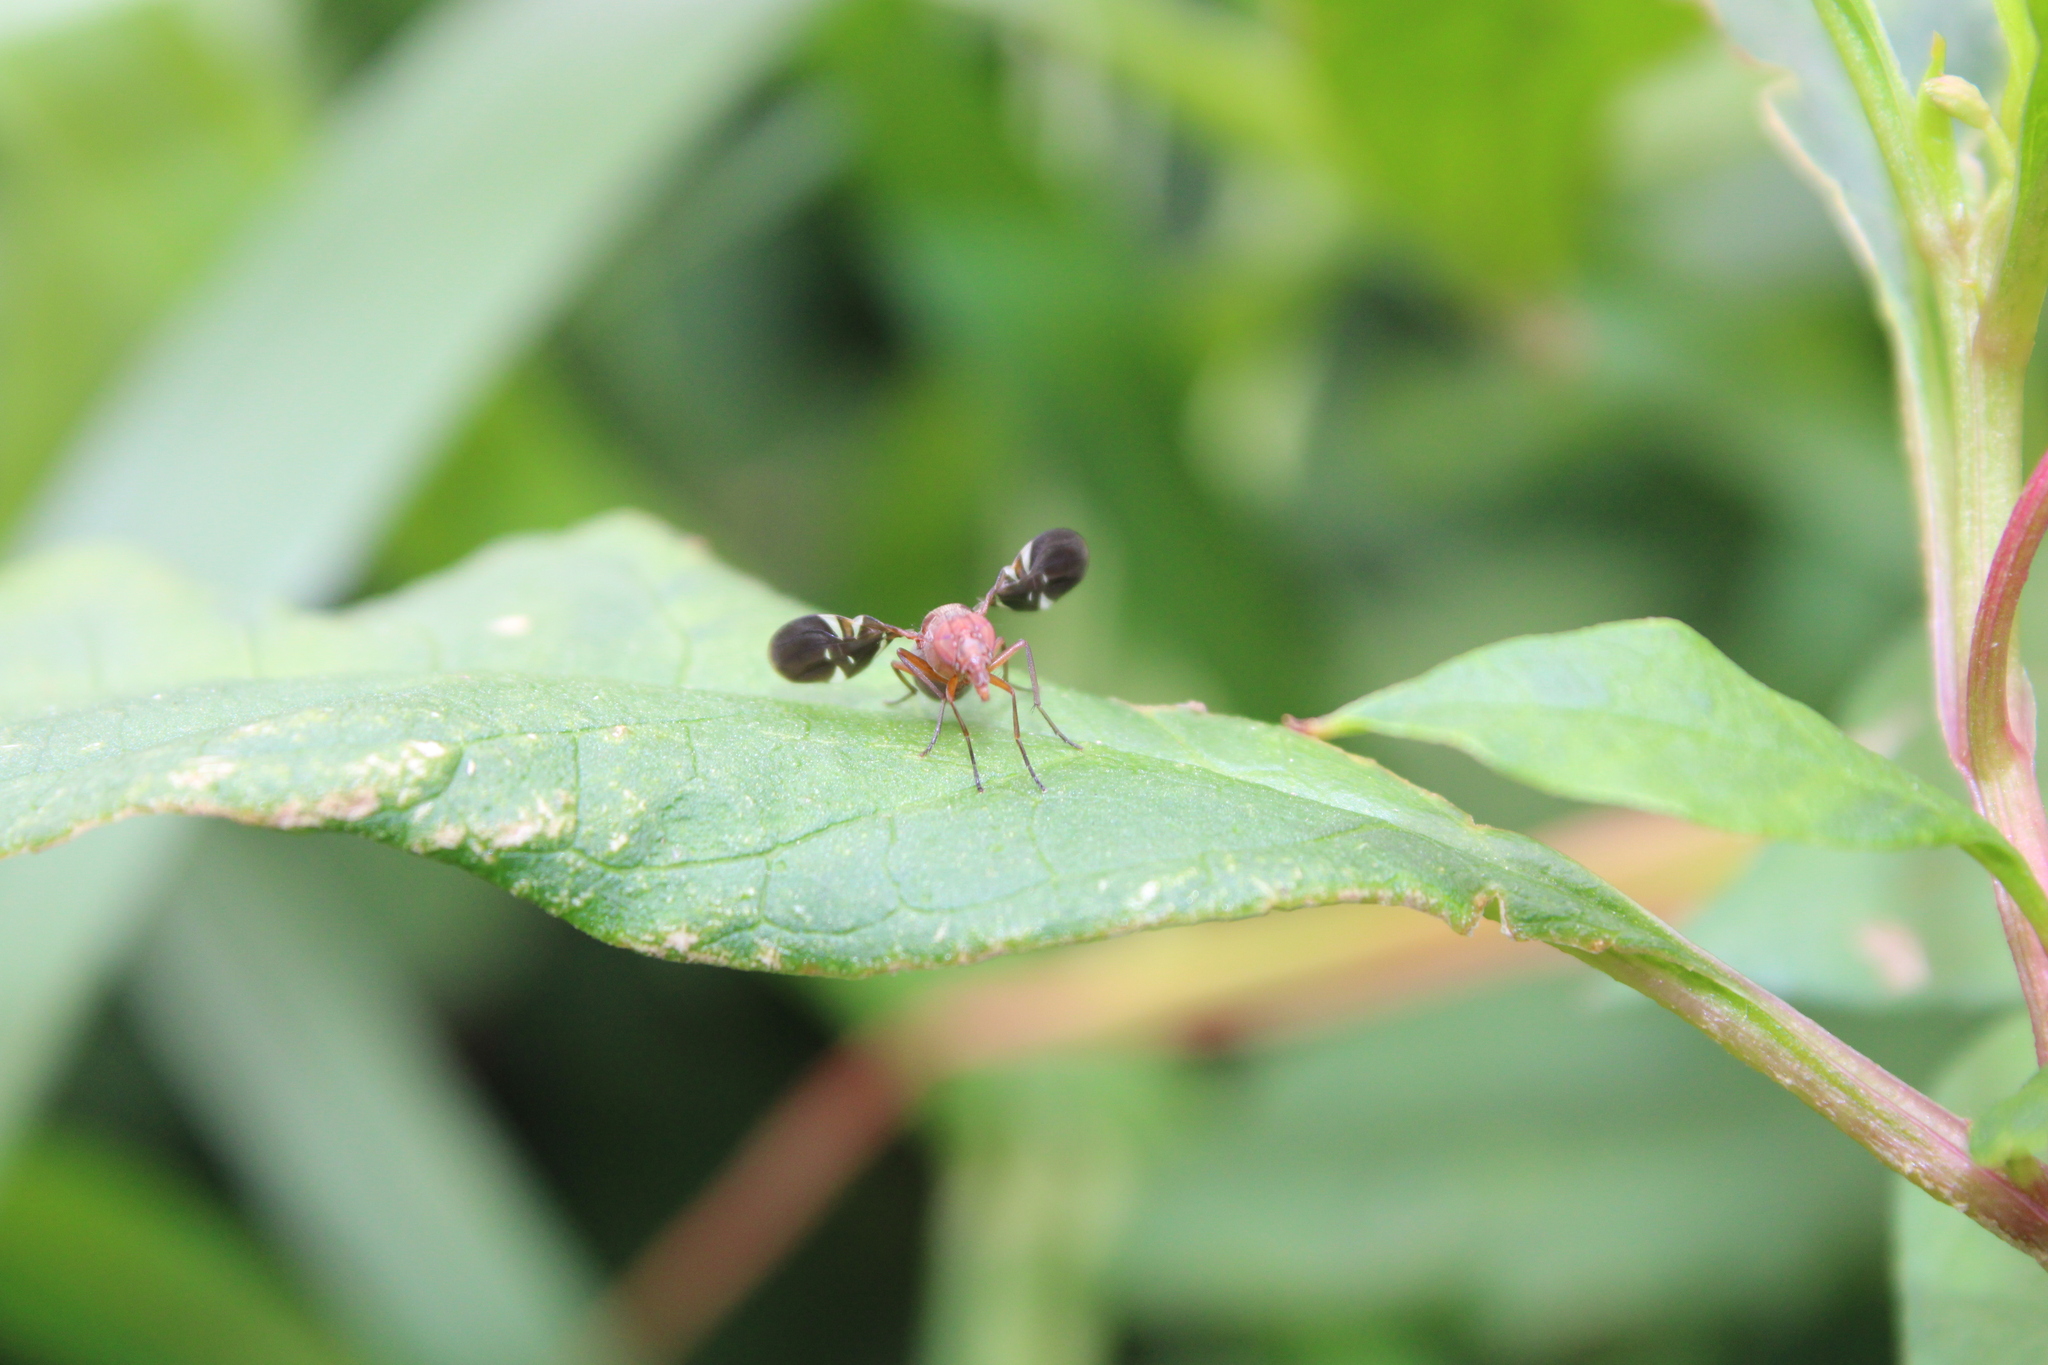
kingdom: Animalia
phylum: Arthropoda
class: Insecta
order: Diptera
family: Ulidiidae
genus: Delphinia
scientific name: Delphinia picta
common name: Common picture-winged fly
